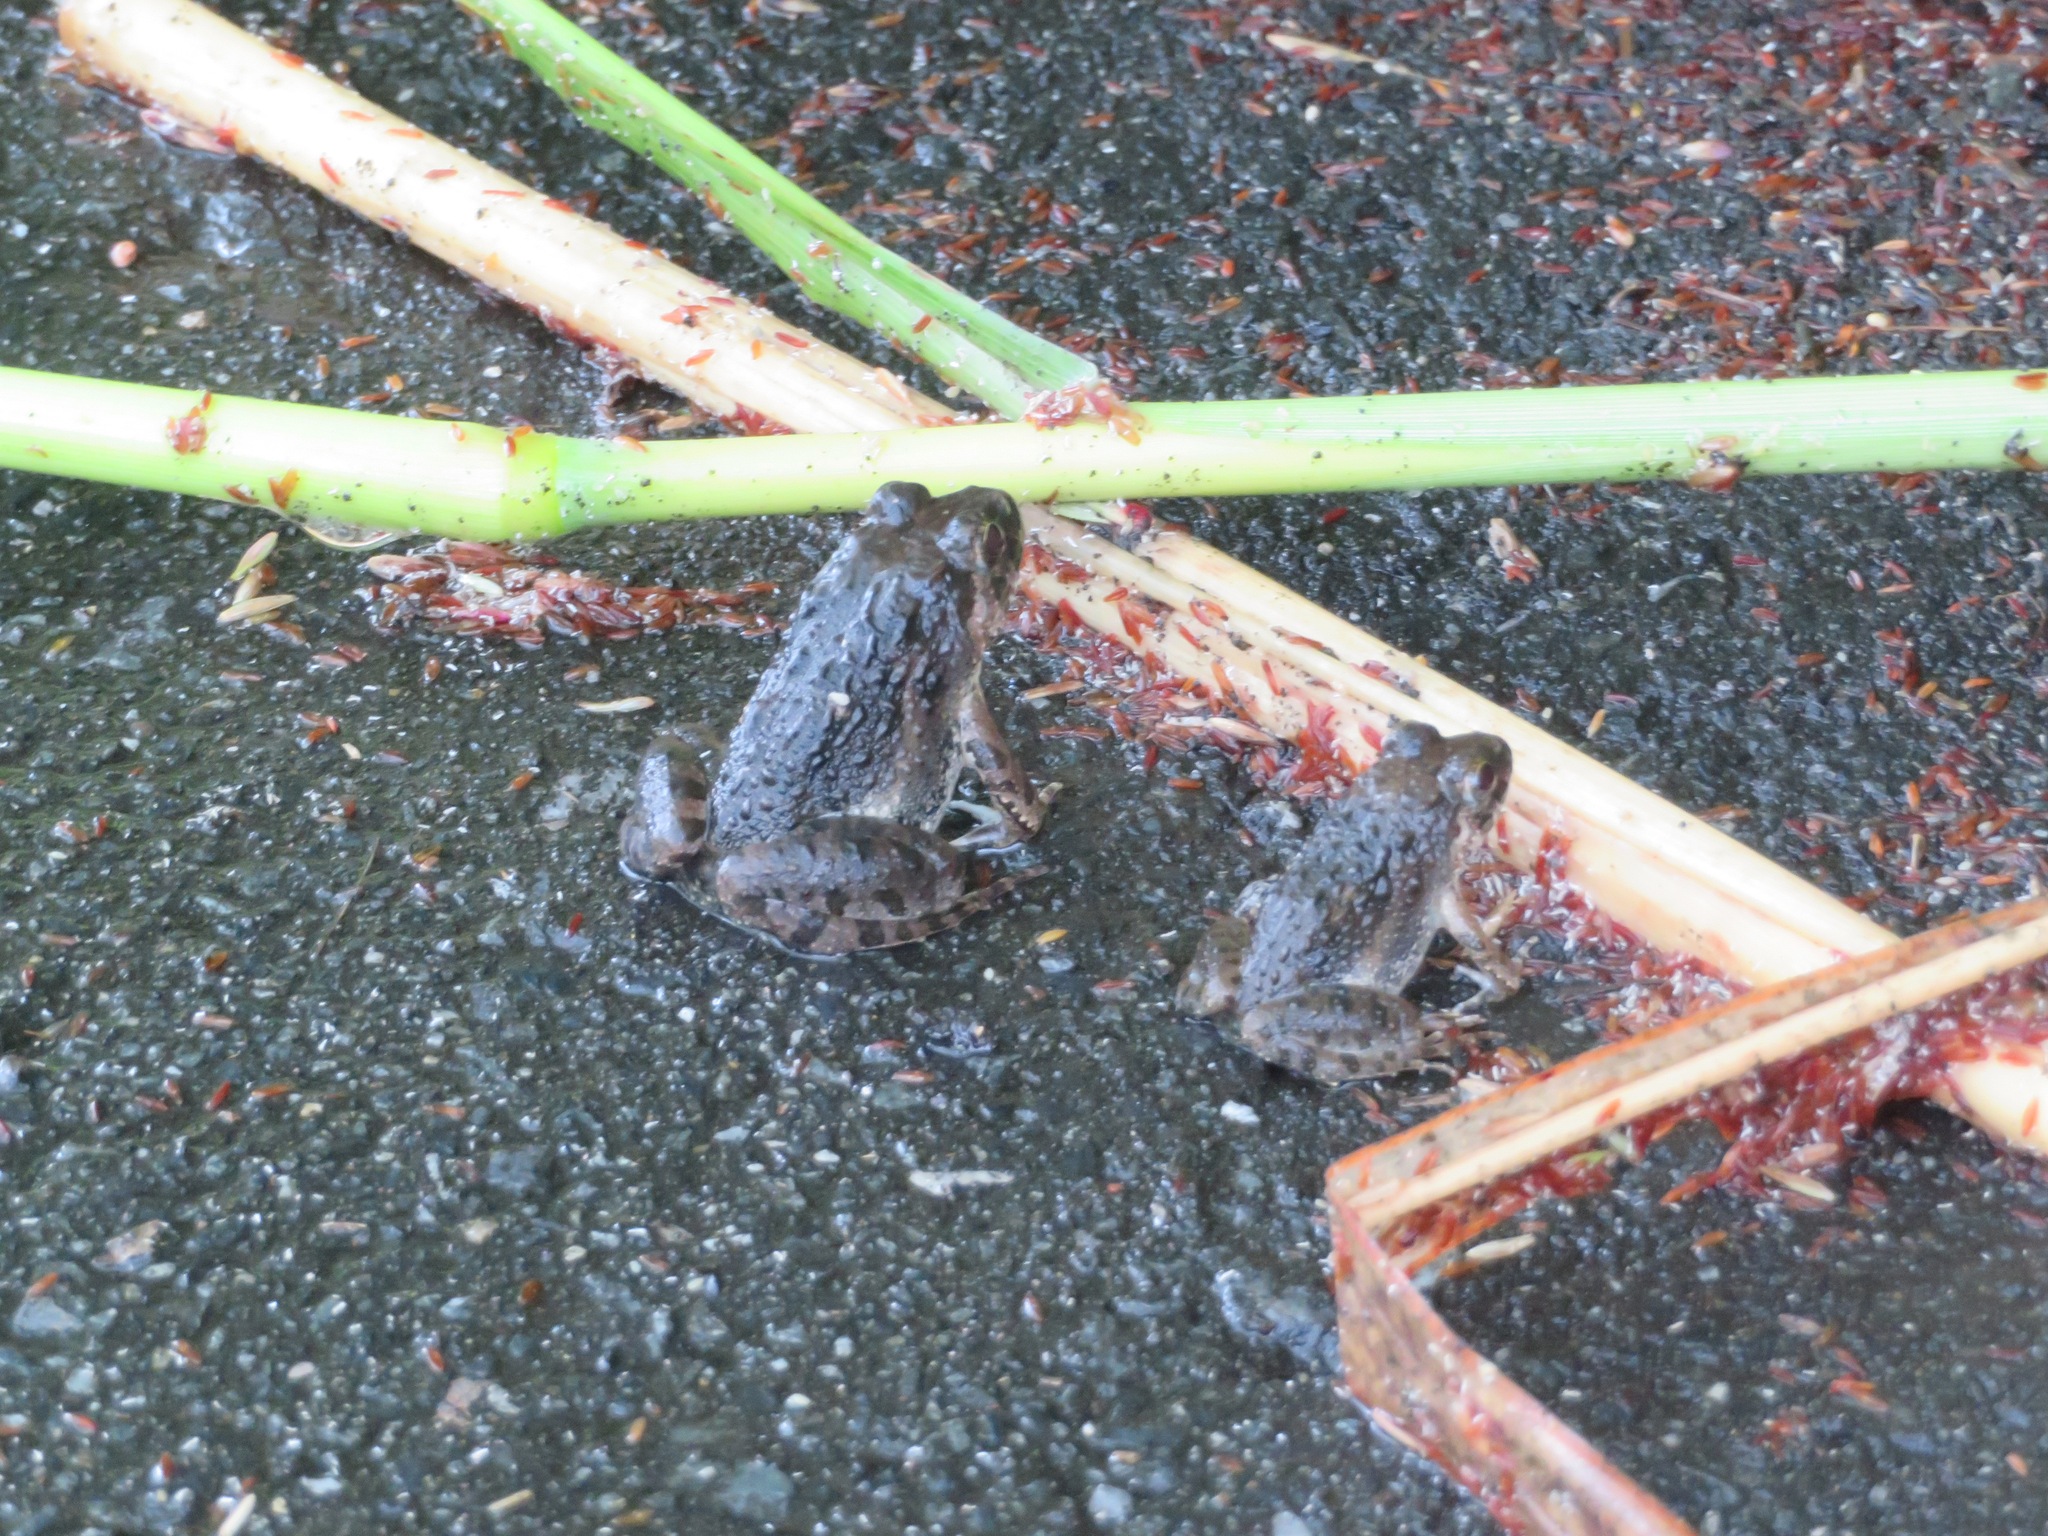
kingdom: Animalia
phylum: Chordata
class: Amphibia
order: Anura
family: Dicroglossidae
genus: Fejervarya
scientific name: Fejervarya kawamurai
